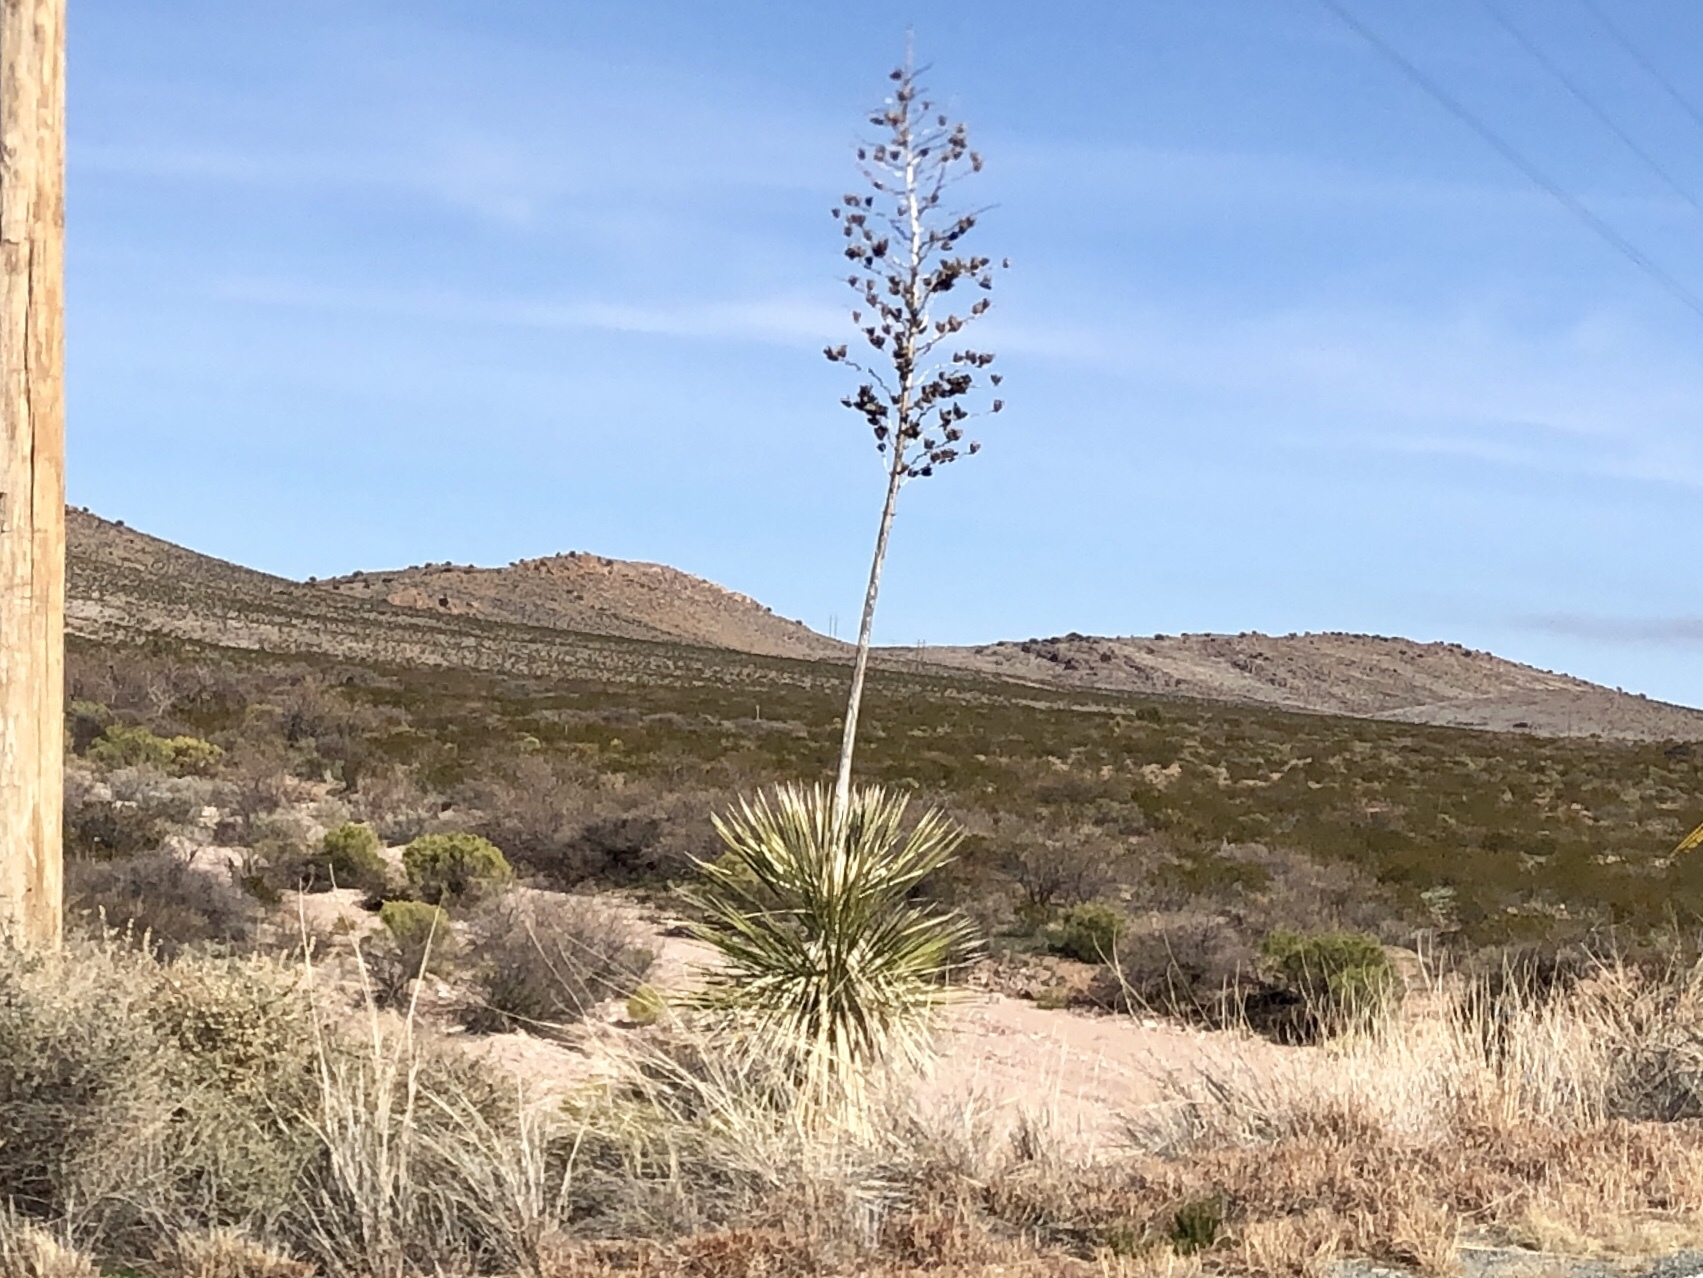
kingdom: Plantae
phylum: Tracheophyta
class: Liliopsida
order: Asparagales
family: Asparagaceae
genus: Yucca
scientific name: Yucca elata
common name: Palmella
